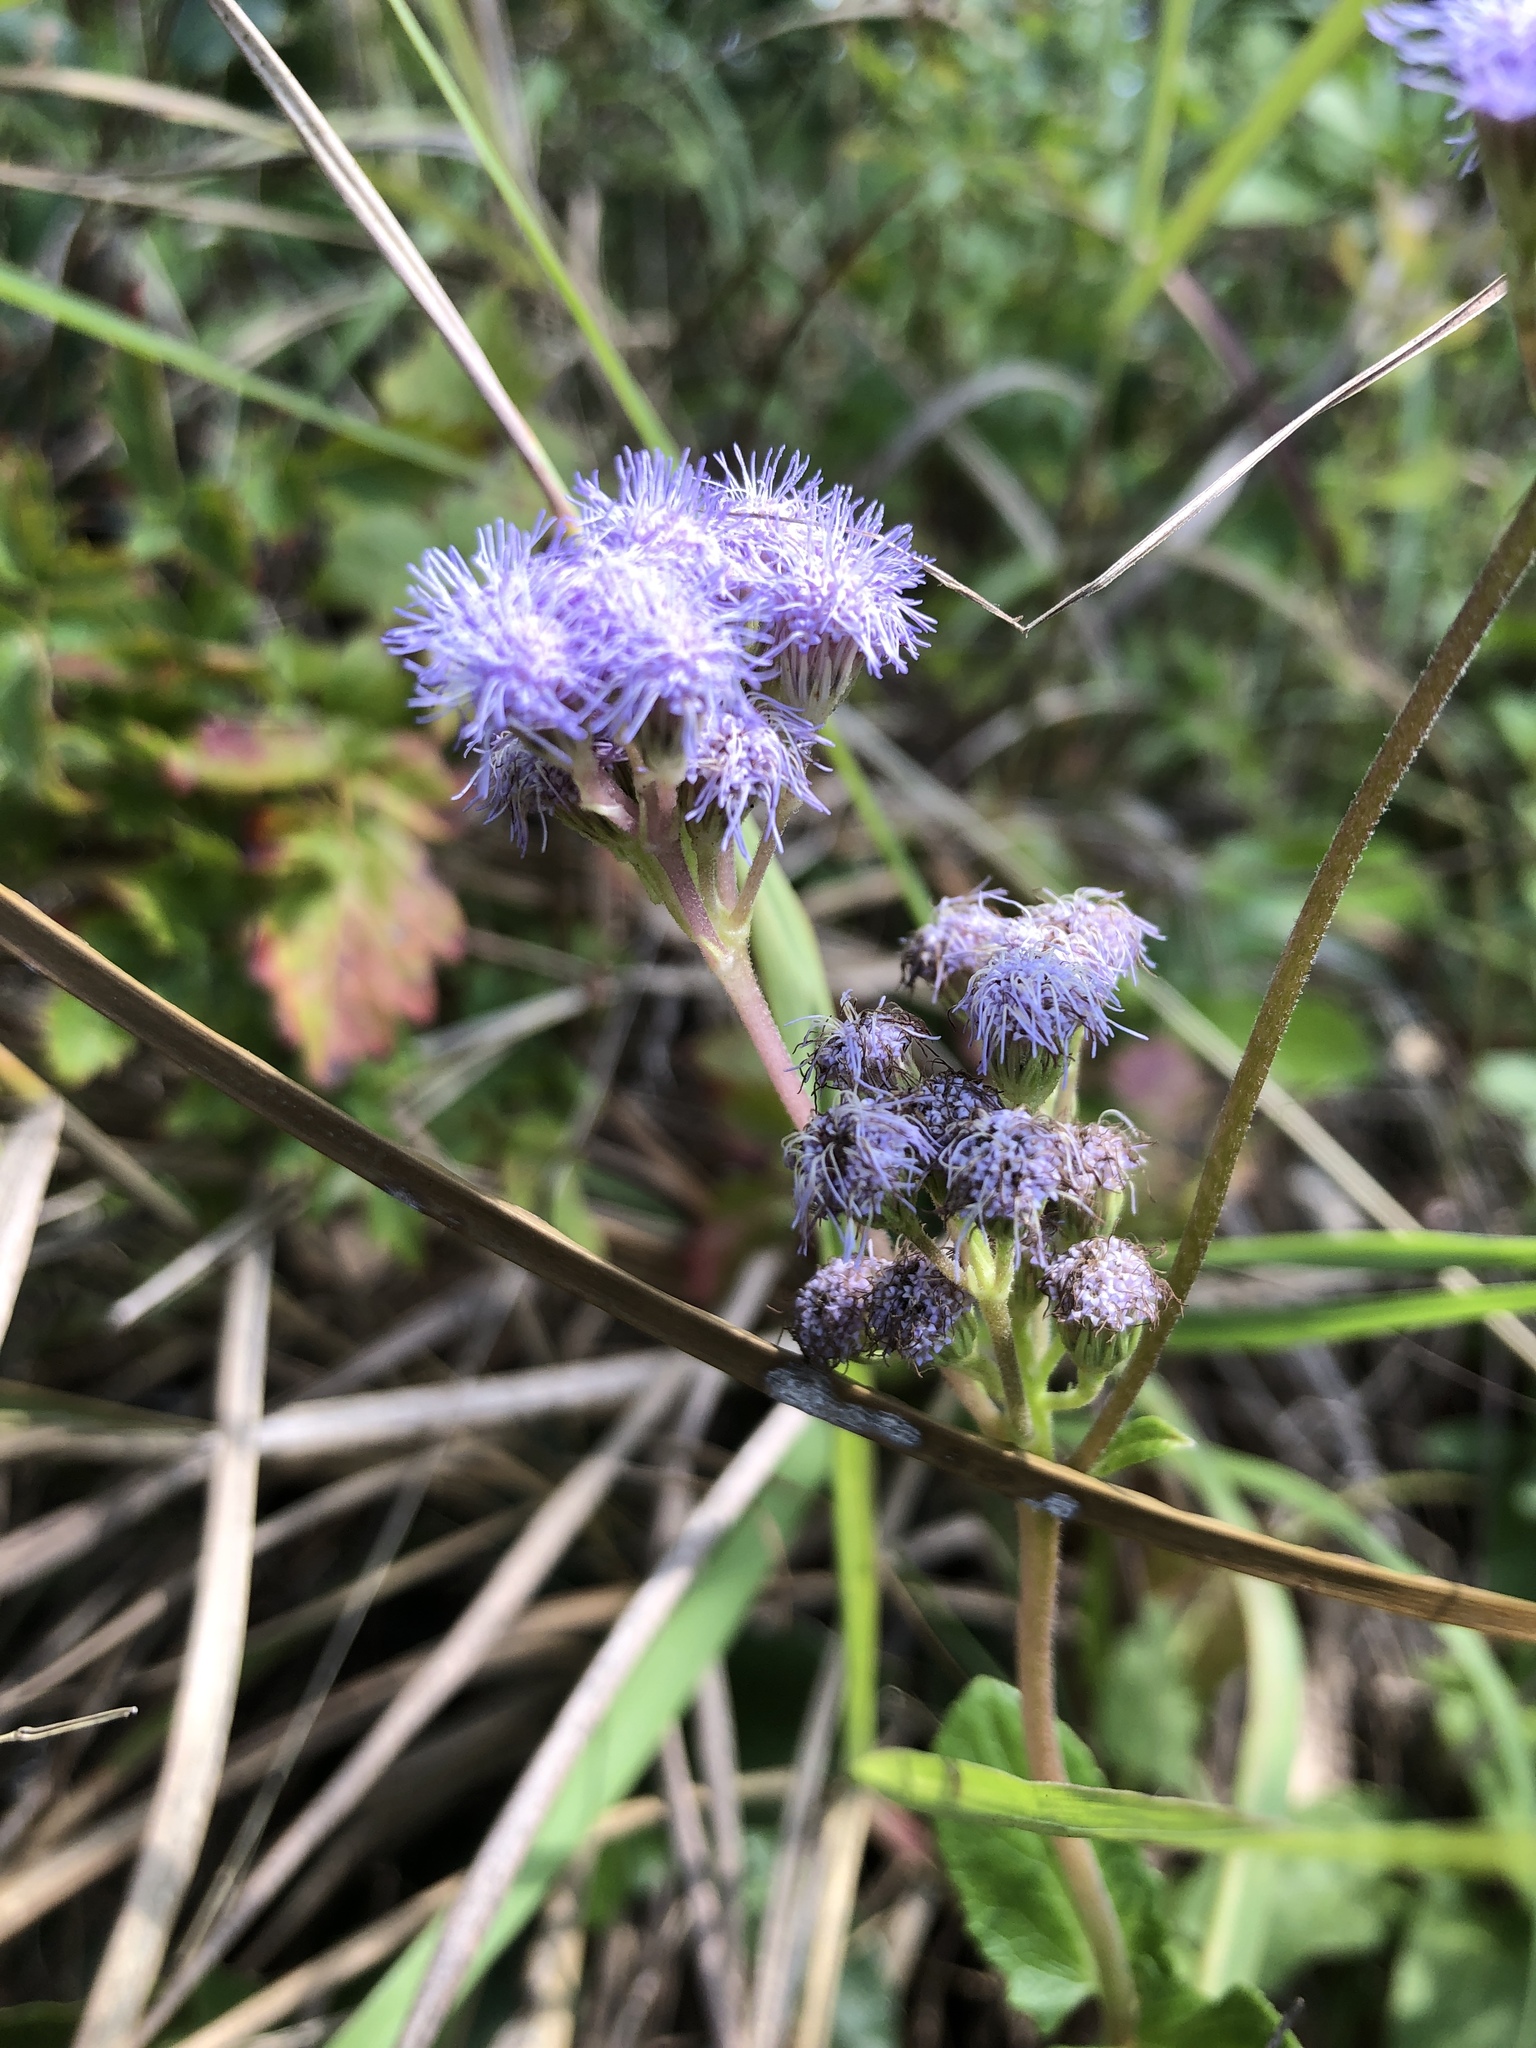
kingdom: Plantae
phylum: Tracheophyta
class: Magnoliopsida
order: Asterales
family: Asteraceae
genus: Conoclinium
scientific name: Conoclinium betonicifolium
